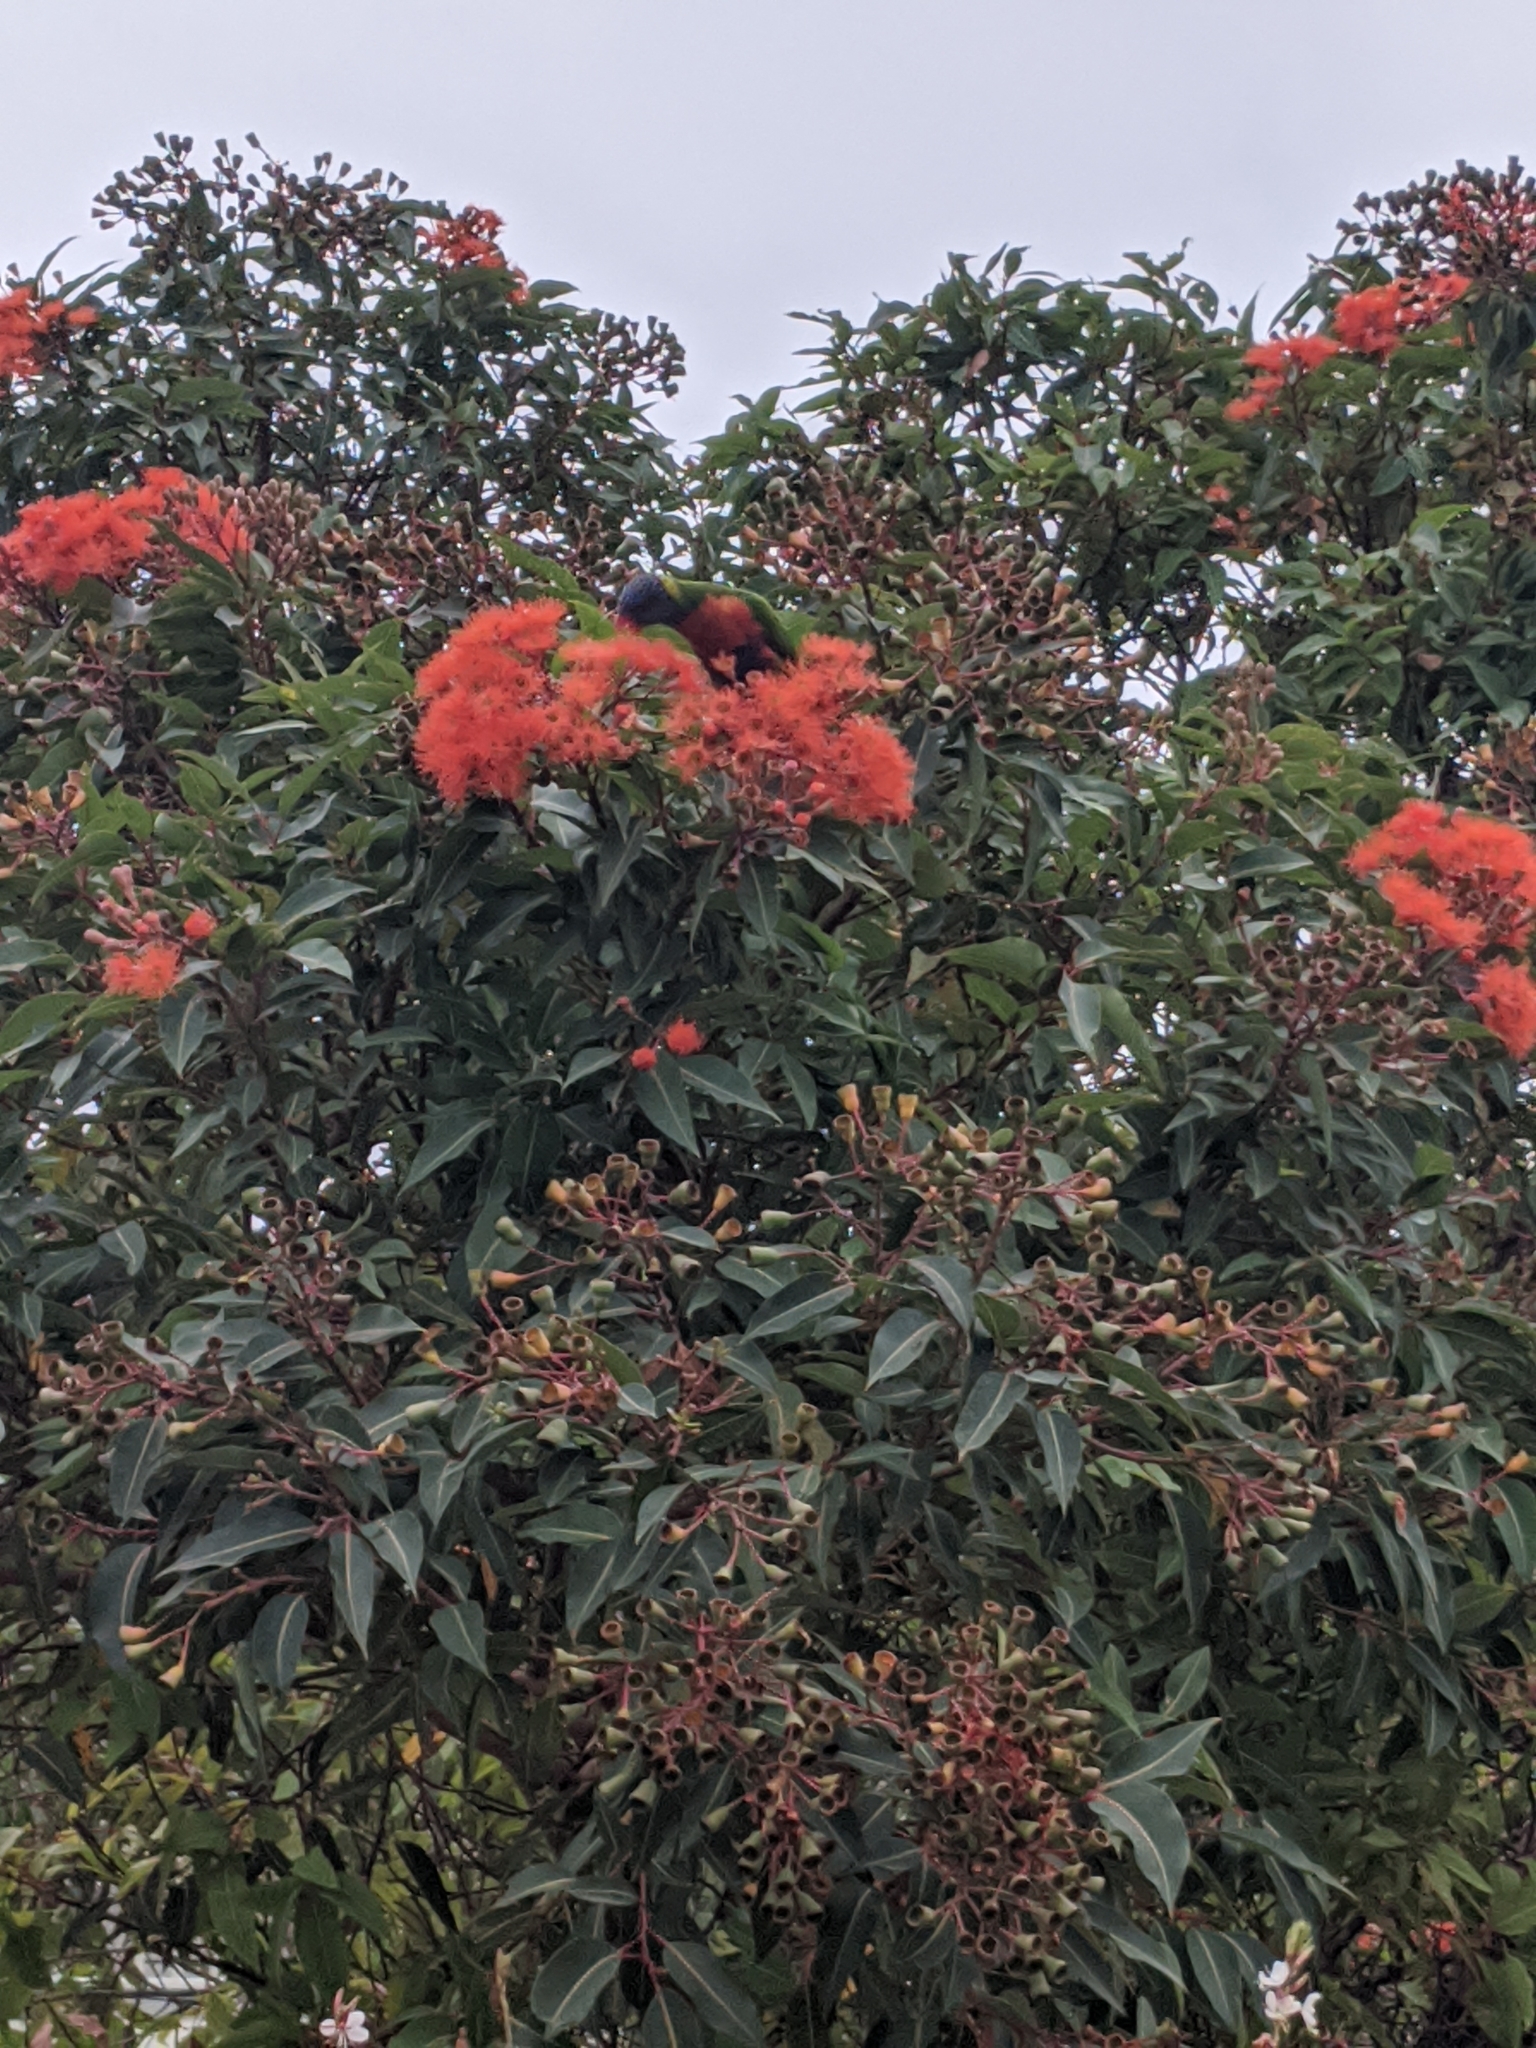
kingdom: Animalia
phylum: Chordata
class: Aves
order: Psittaciformes
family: Psittacidae
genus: Trichoglossus
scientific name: Trichoglossus haematodus
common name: Coconut lorikeet
